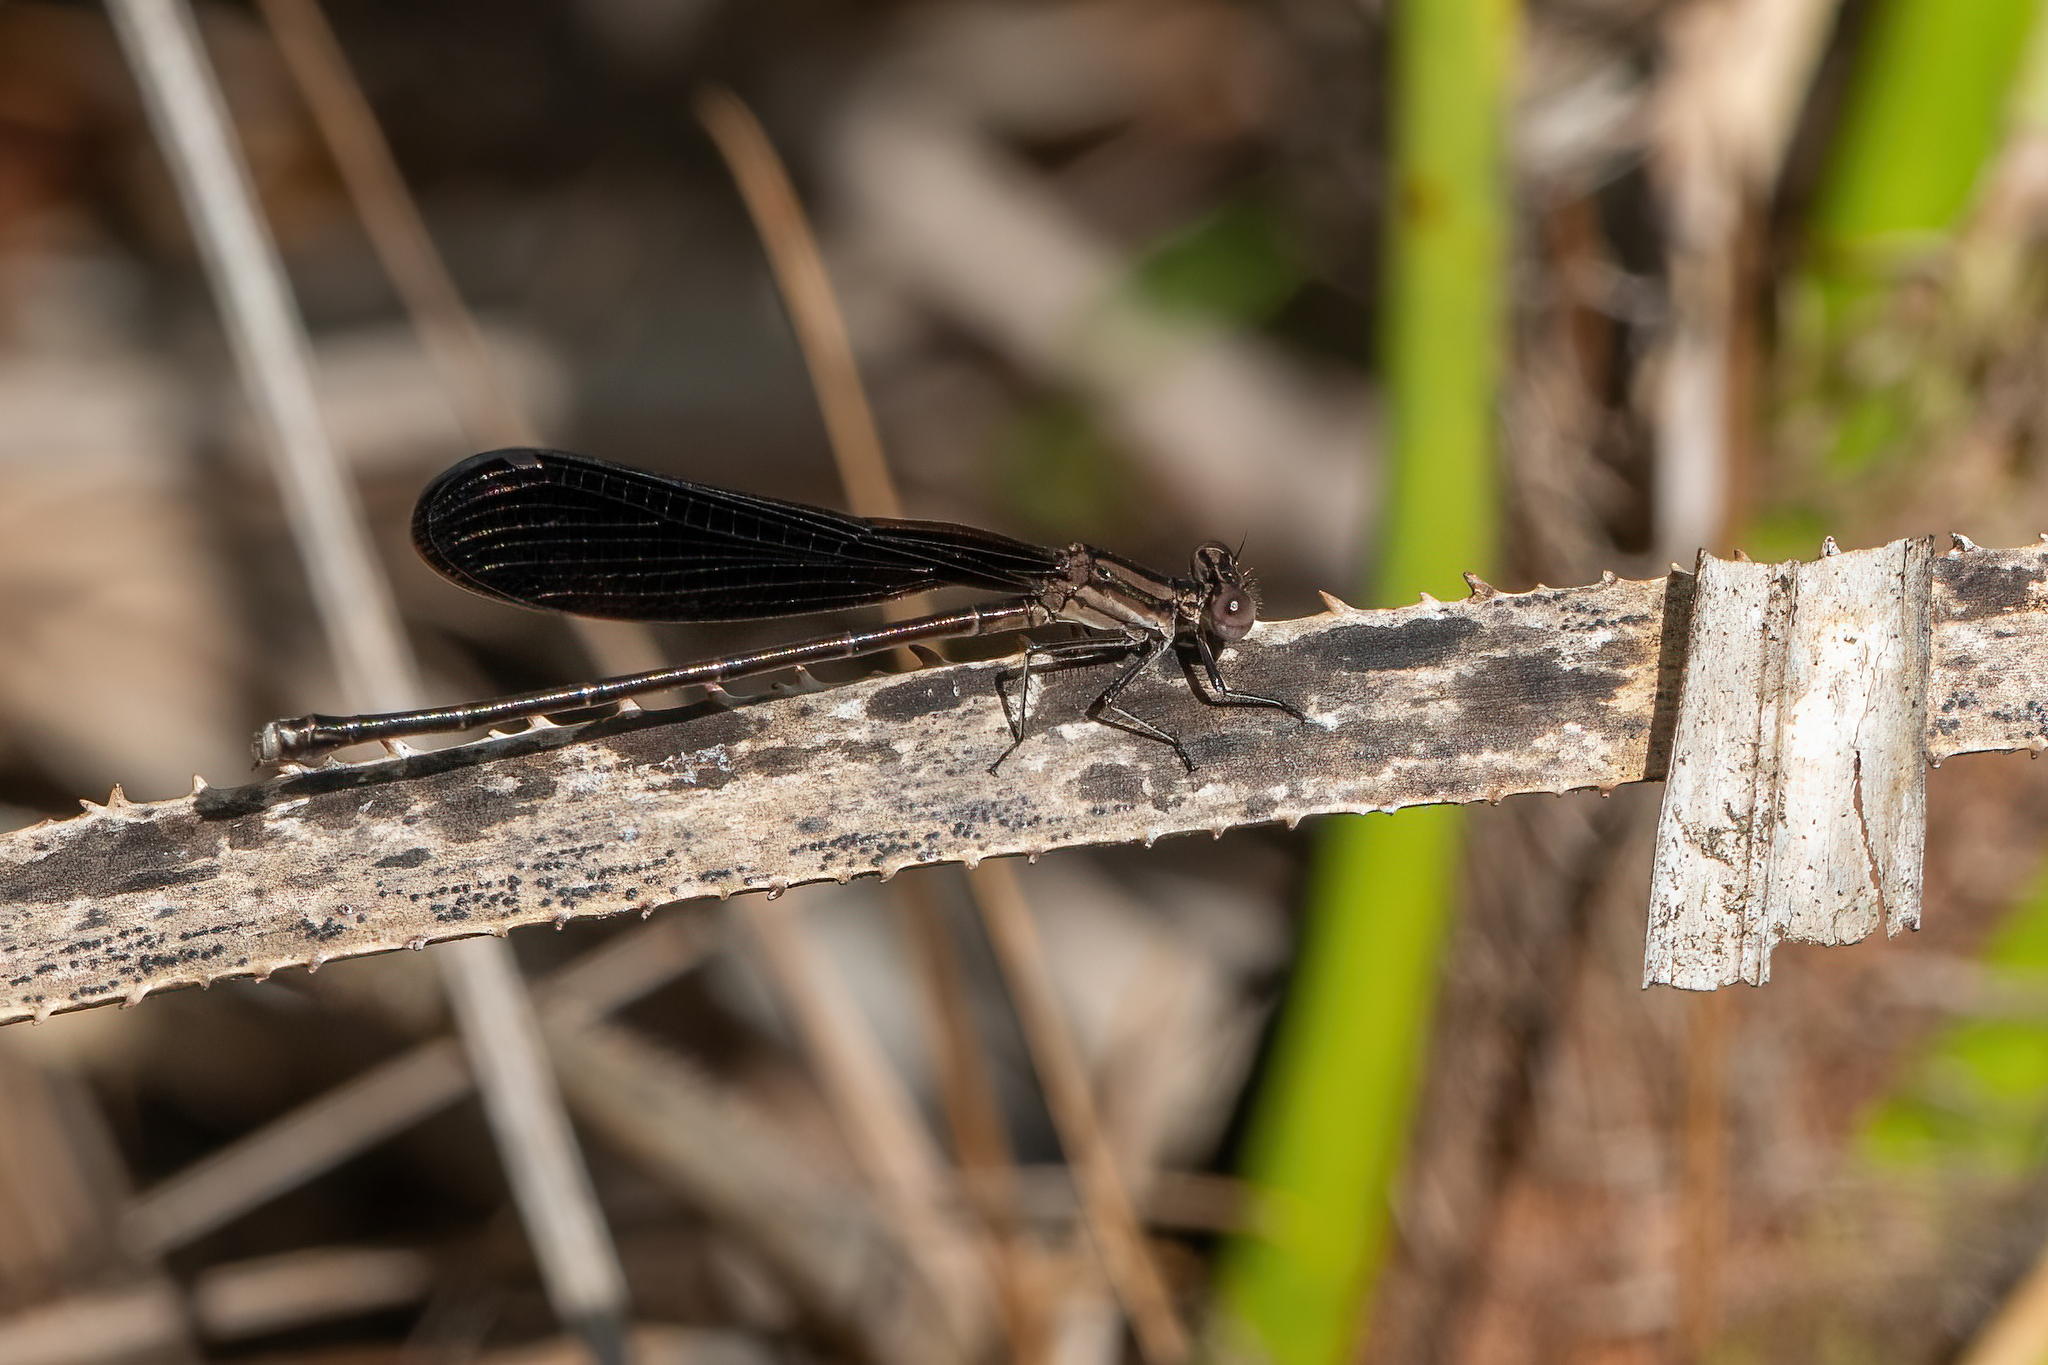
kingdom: Animalia
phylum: Arthropoda
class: Insecta
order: Odonata
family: Coenagrionidae
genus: Argia
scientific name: Argia fumipennis
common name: Variable dancer
